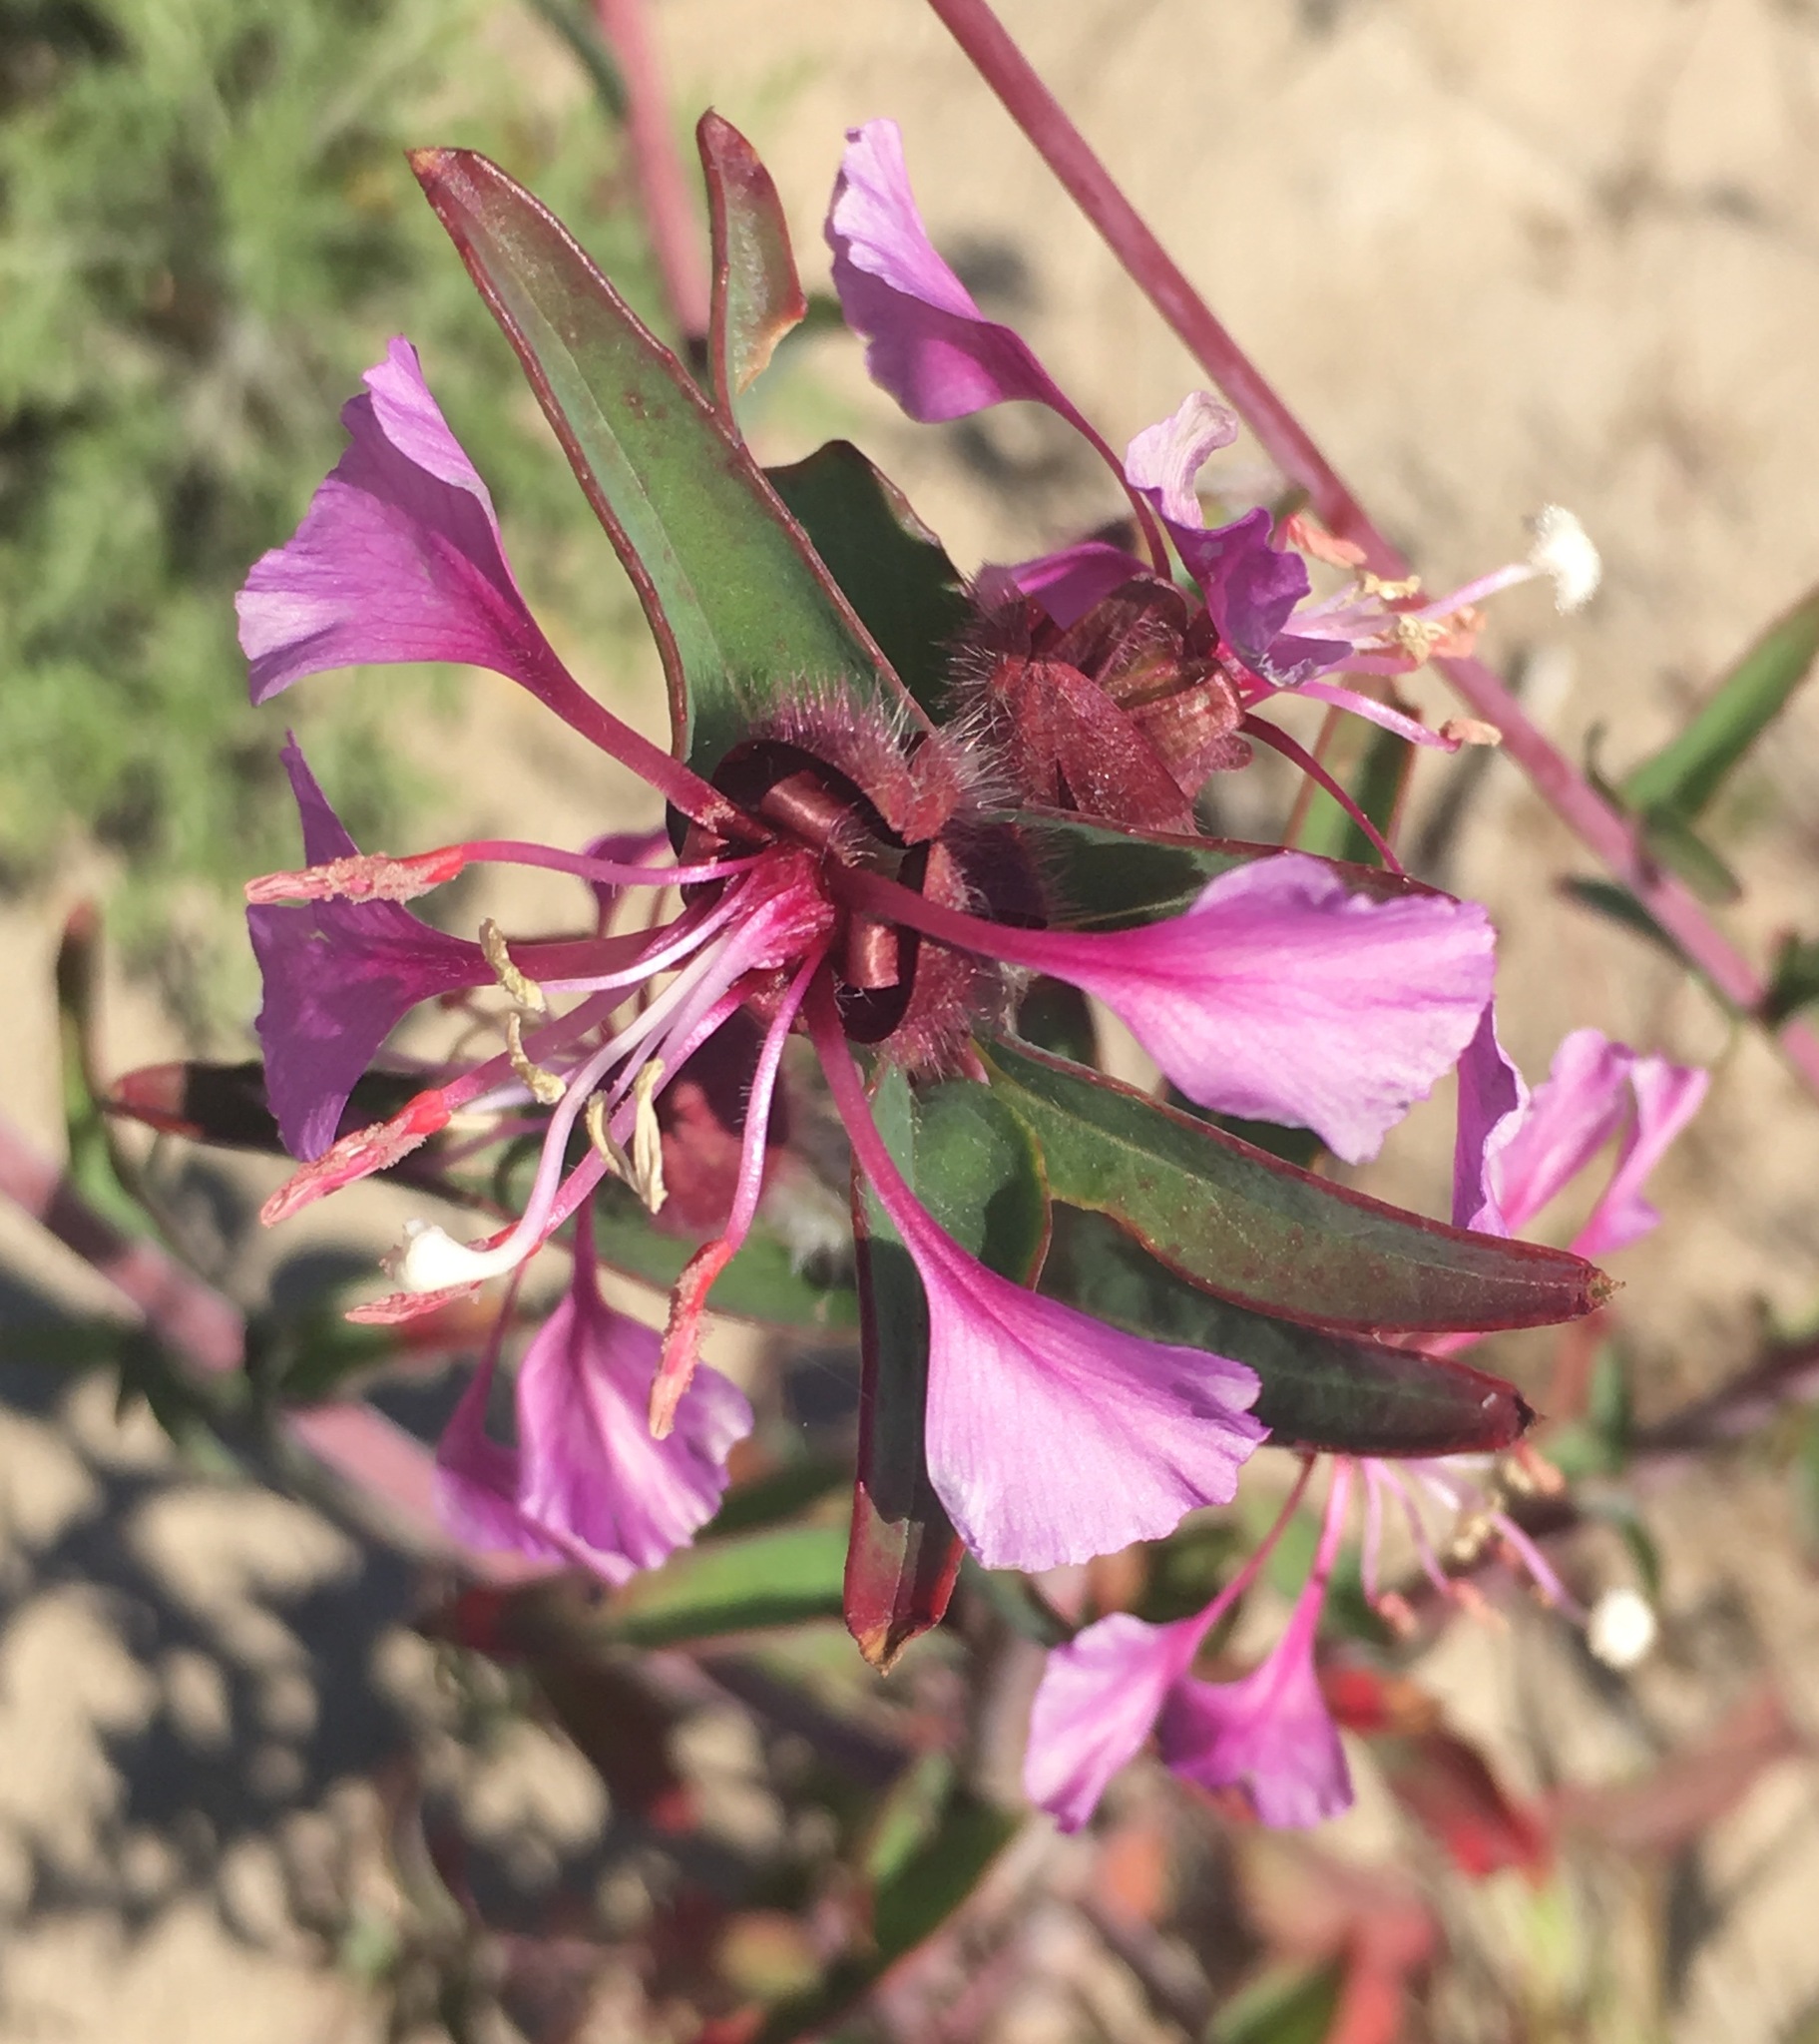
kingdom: Plantae
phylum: Tracheophyta
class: Magnoliopsida
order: Myrtales
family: Onagraceae
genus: Clarkia
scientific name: Clarkia unguiculata
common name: Clarkia
